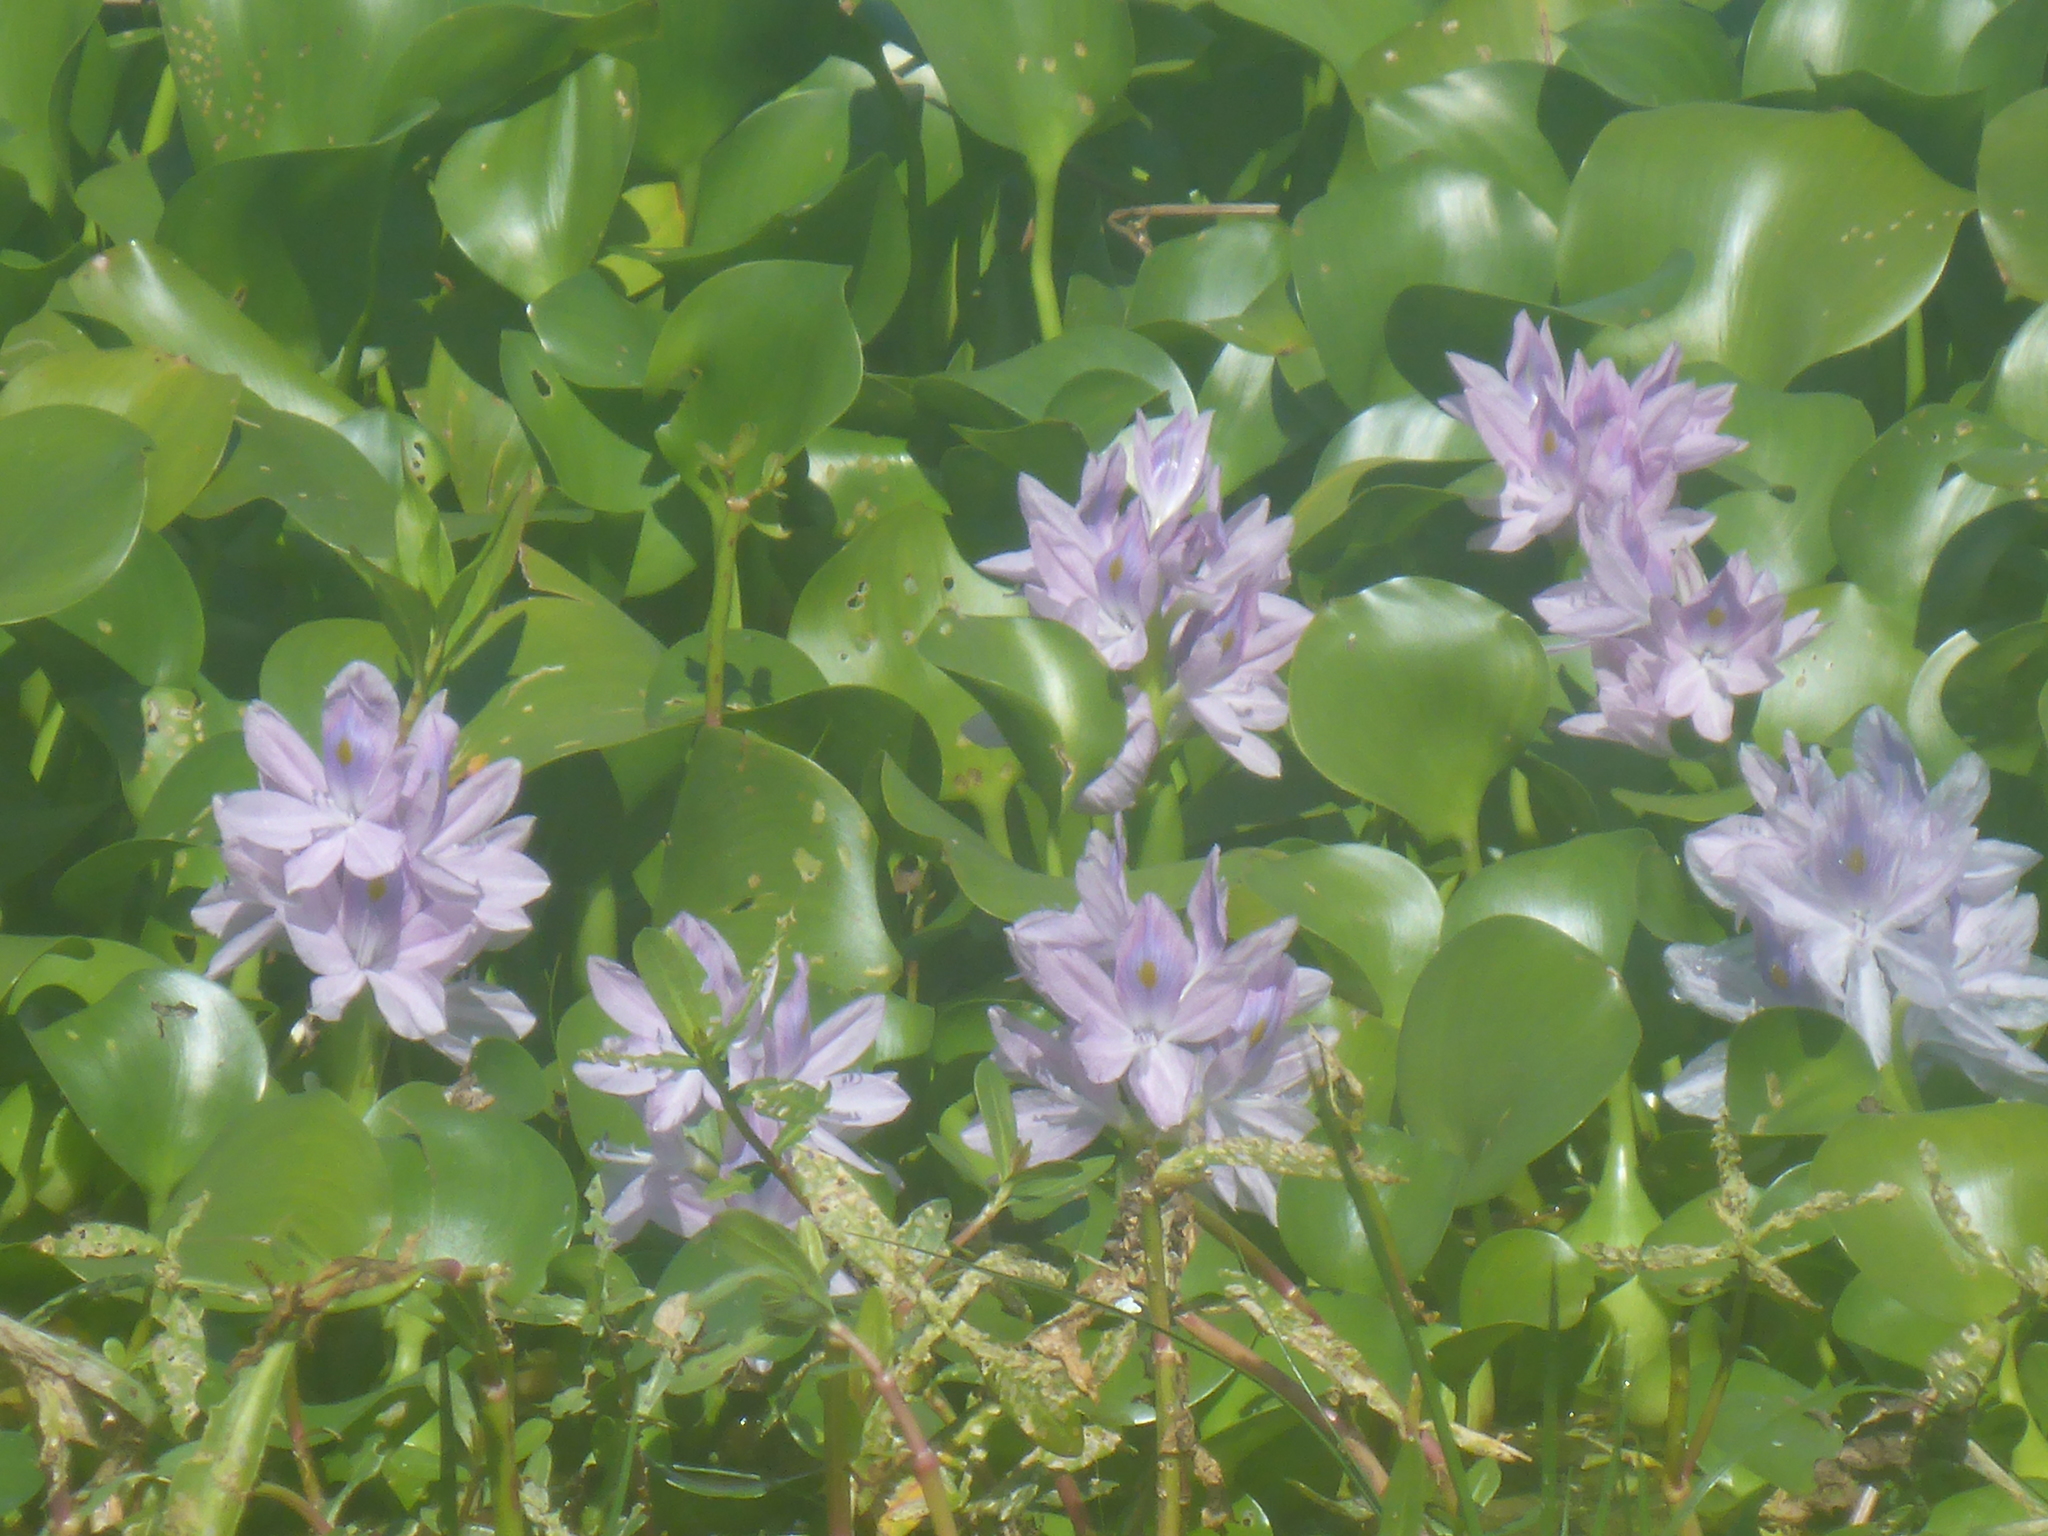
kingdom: Plantae
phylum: Tracheophyta
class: Liliopsida
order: Commelinales
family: Pontederiaceae
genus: Pontederia
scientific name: Pontederia crassipes
